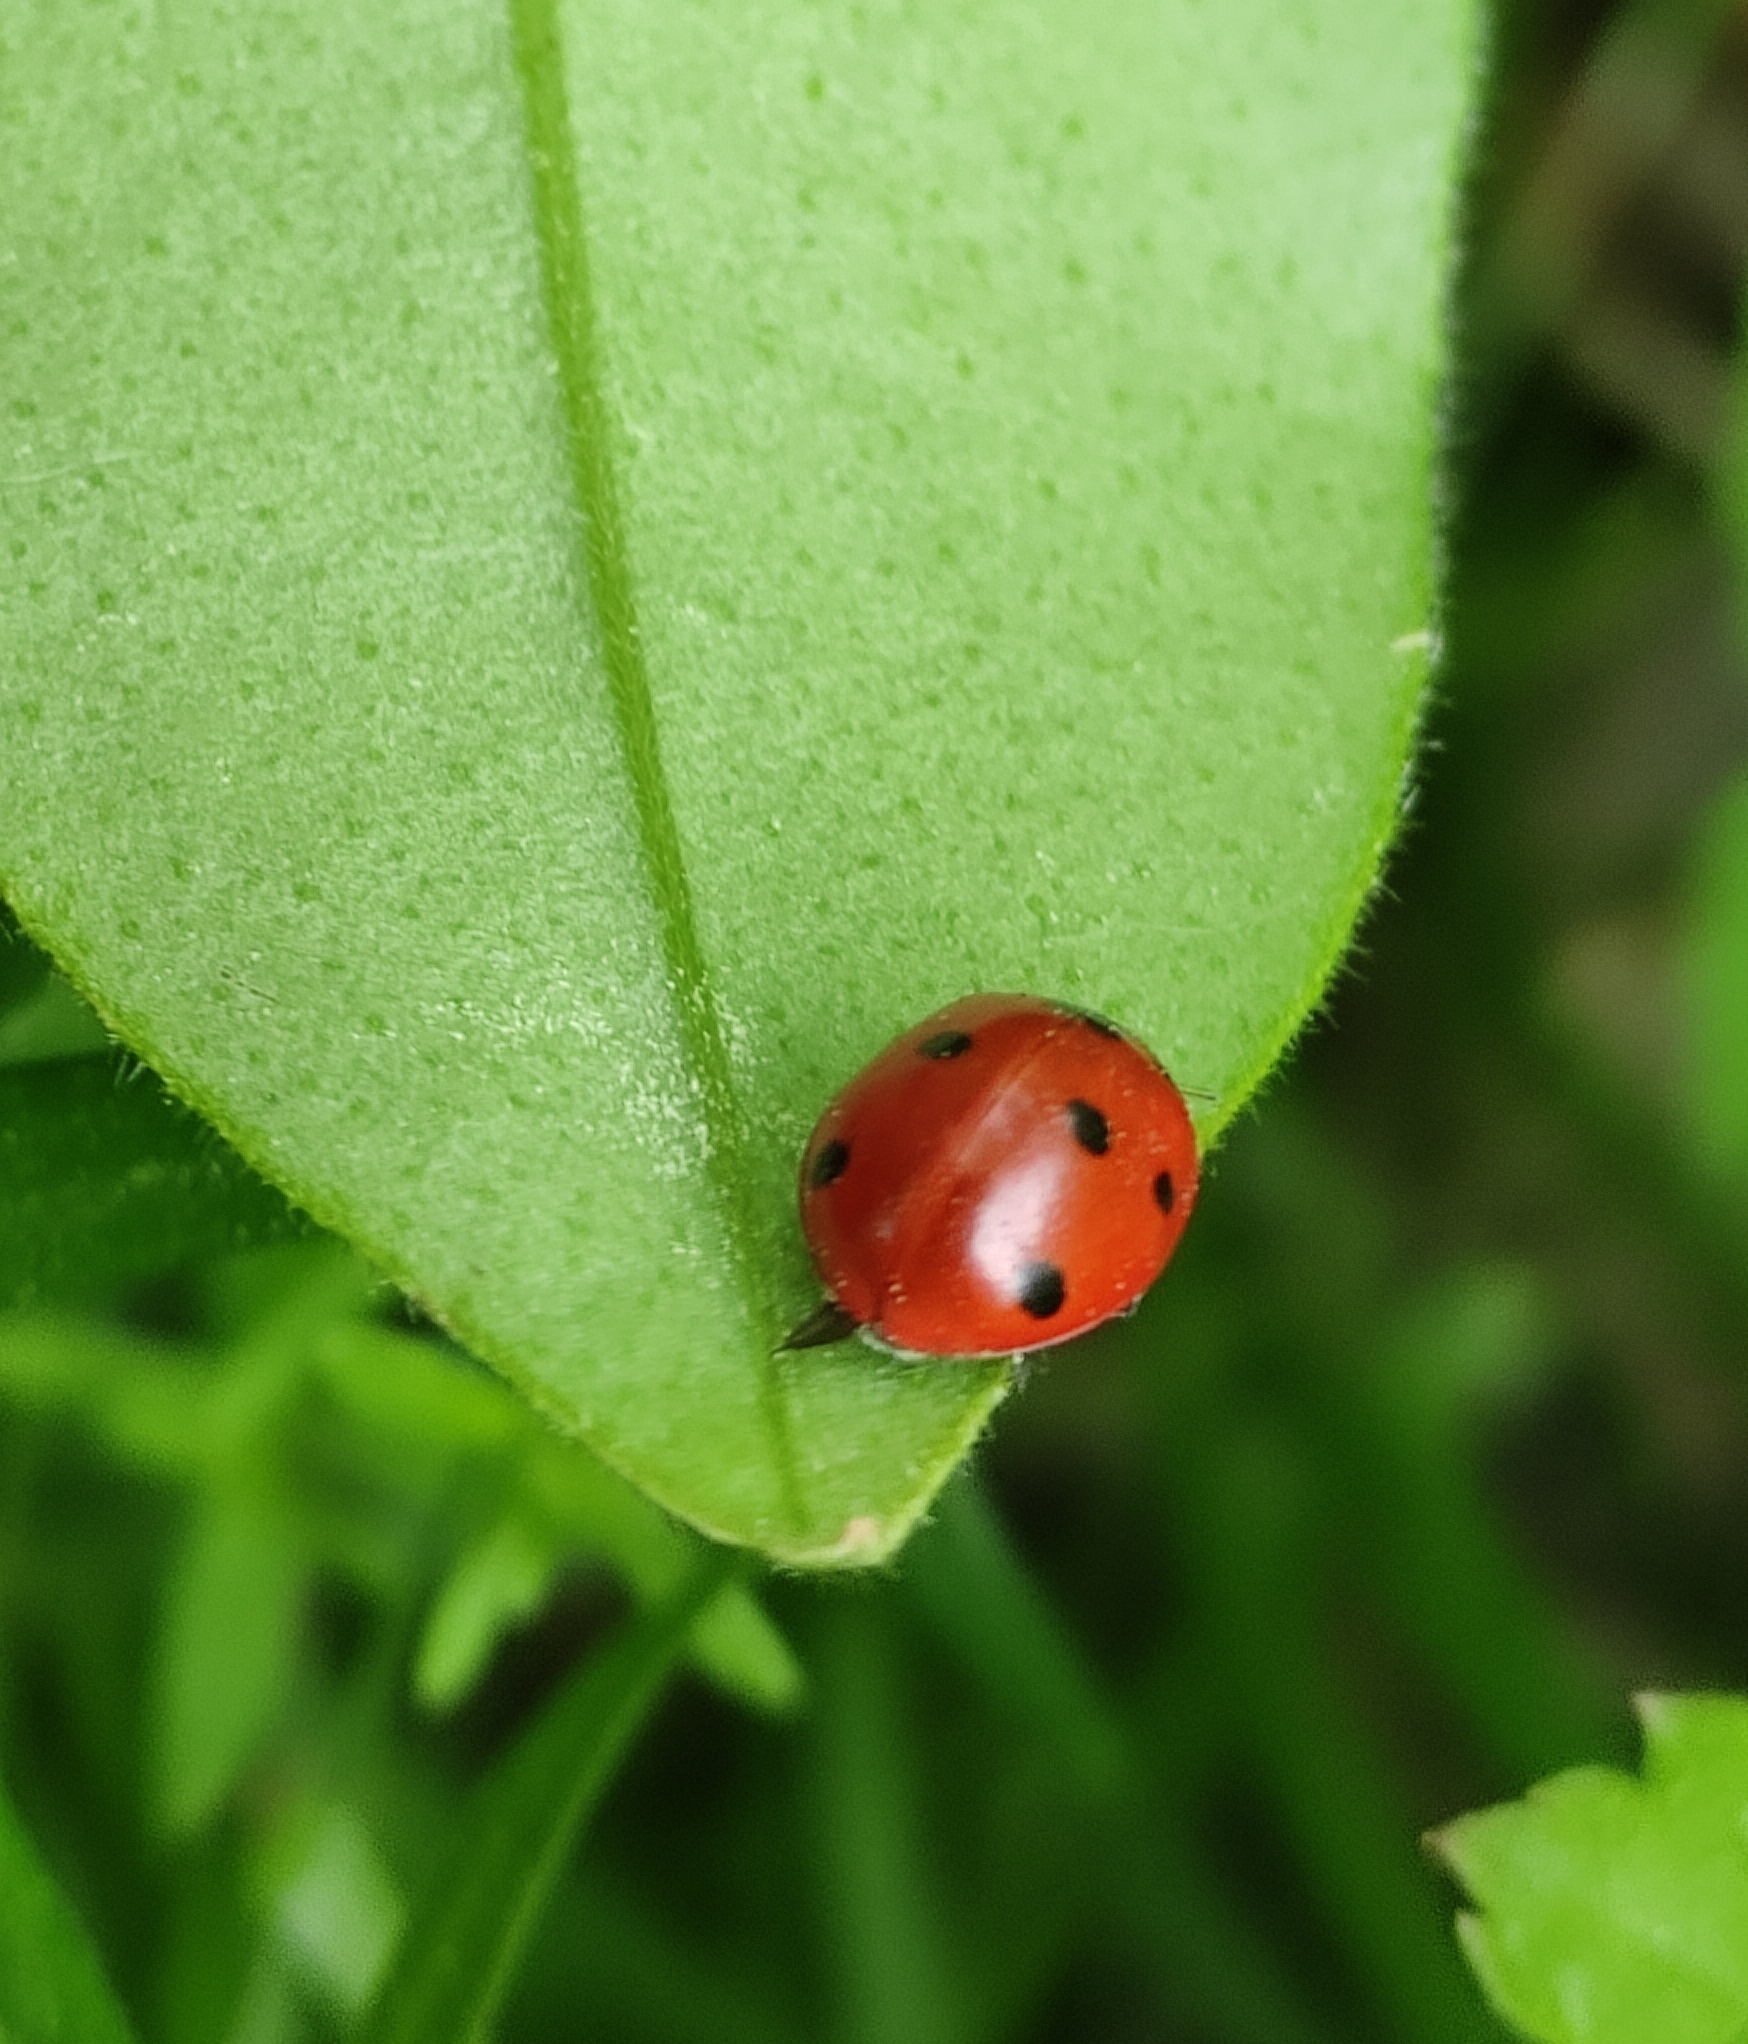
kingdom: Animalia
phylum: Arthropoda
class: Insecta
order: Coleoptera
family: Coccinellidae
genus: Coccinella
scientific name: Coccinella septempunctata
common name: Sevenspotted lady beetle
